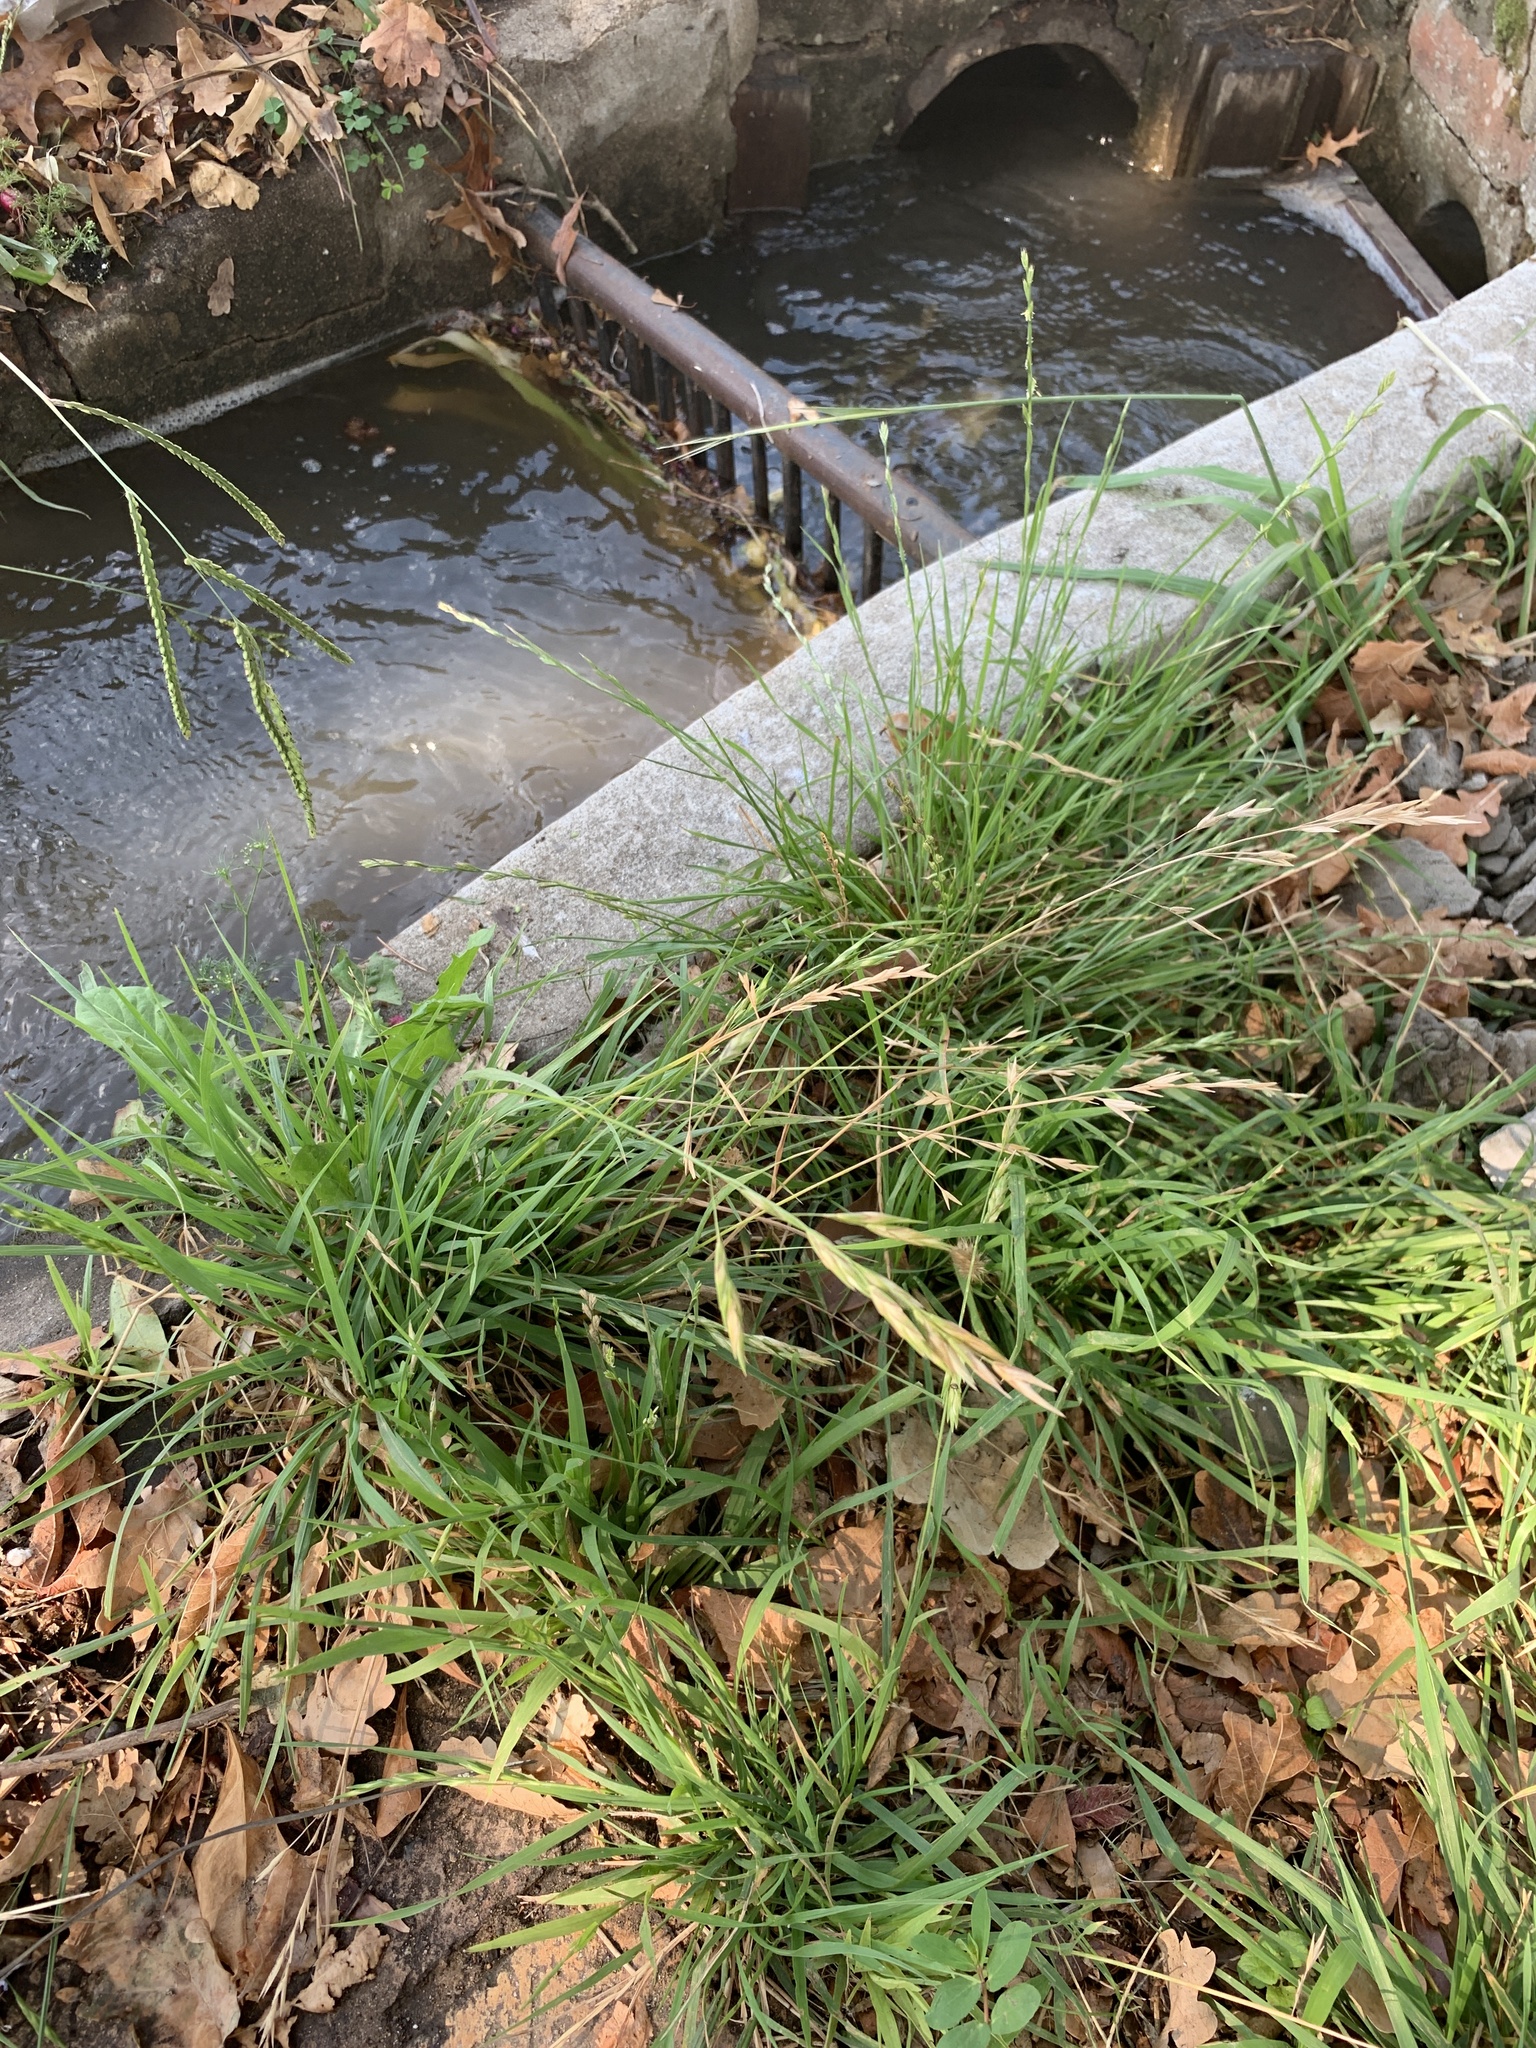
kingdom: Plantae
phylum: Tracheophyta
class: Liliopsida
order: Poales
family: Poaceae
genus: Bromus
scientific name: Bromus catharticus
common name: Rescuegrass
